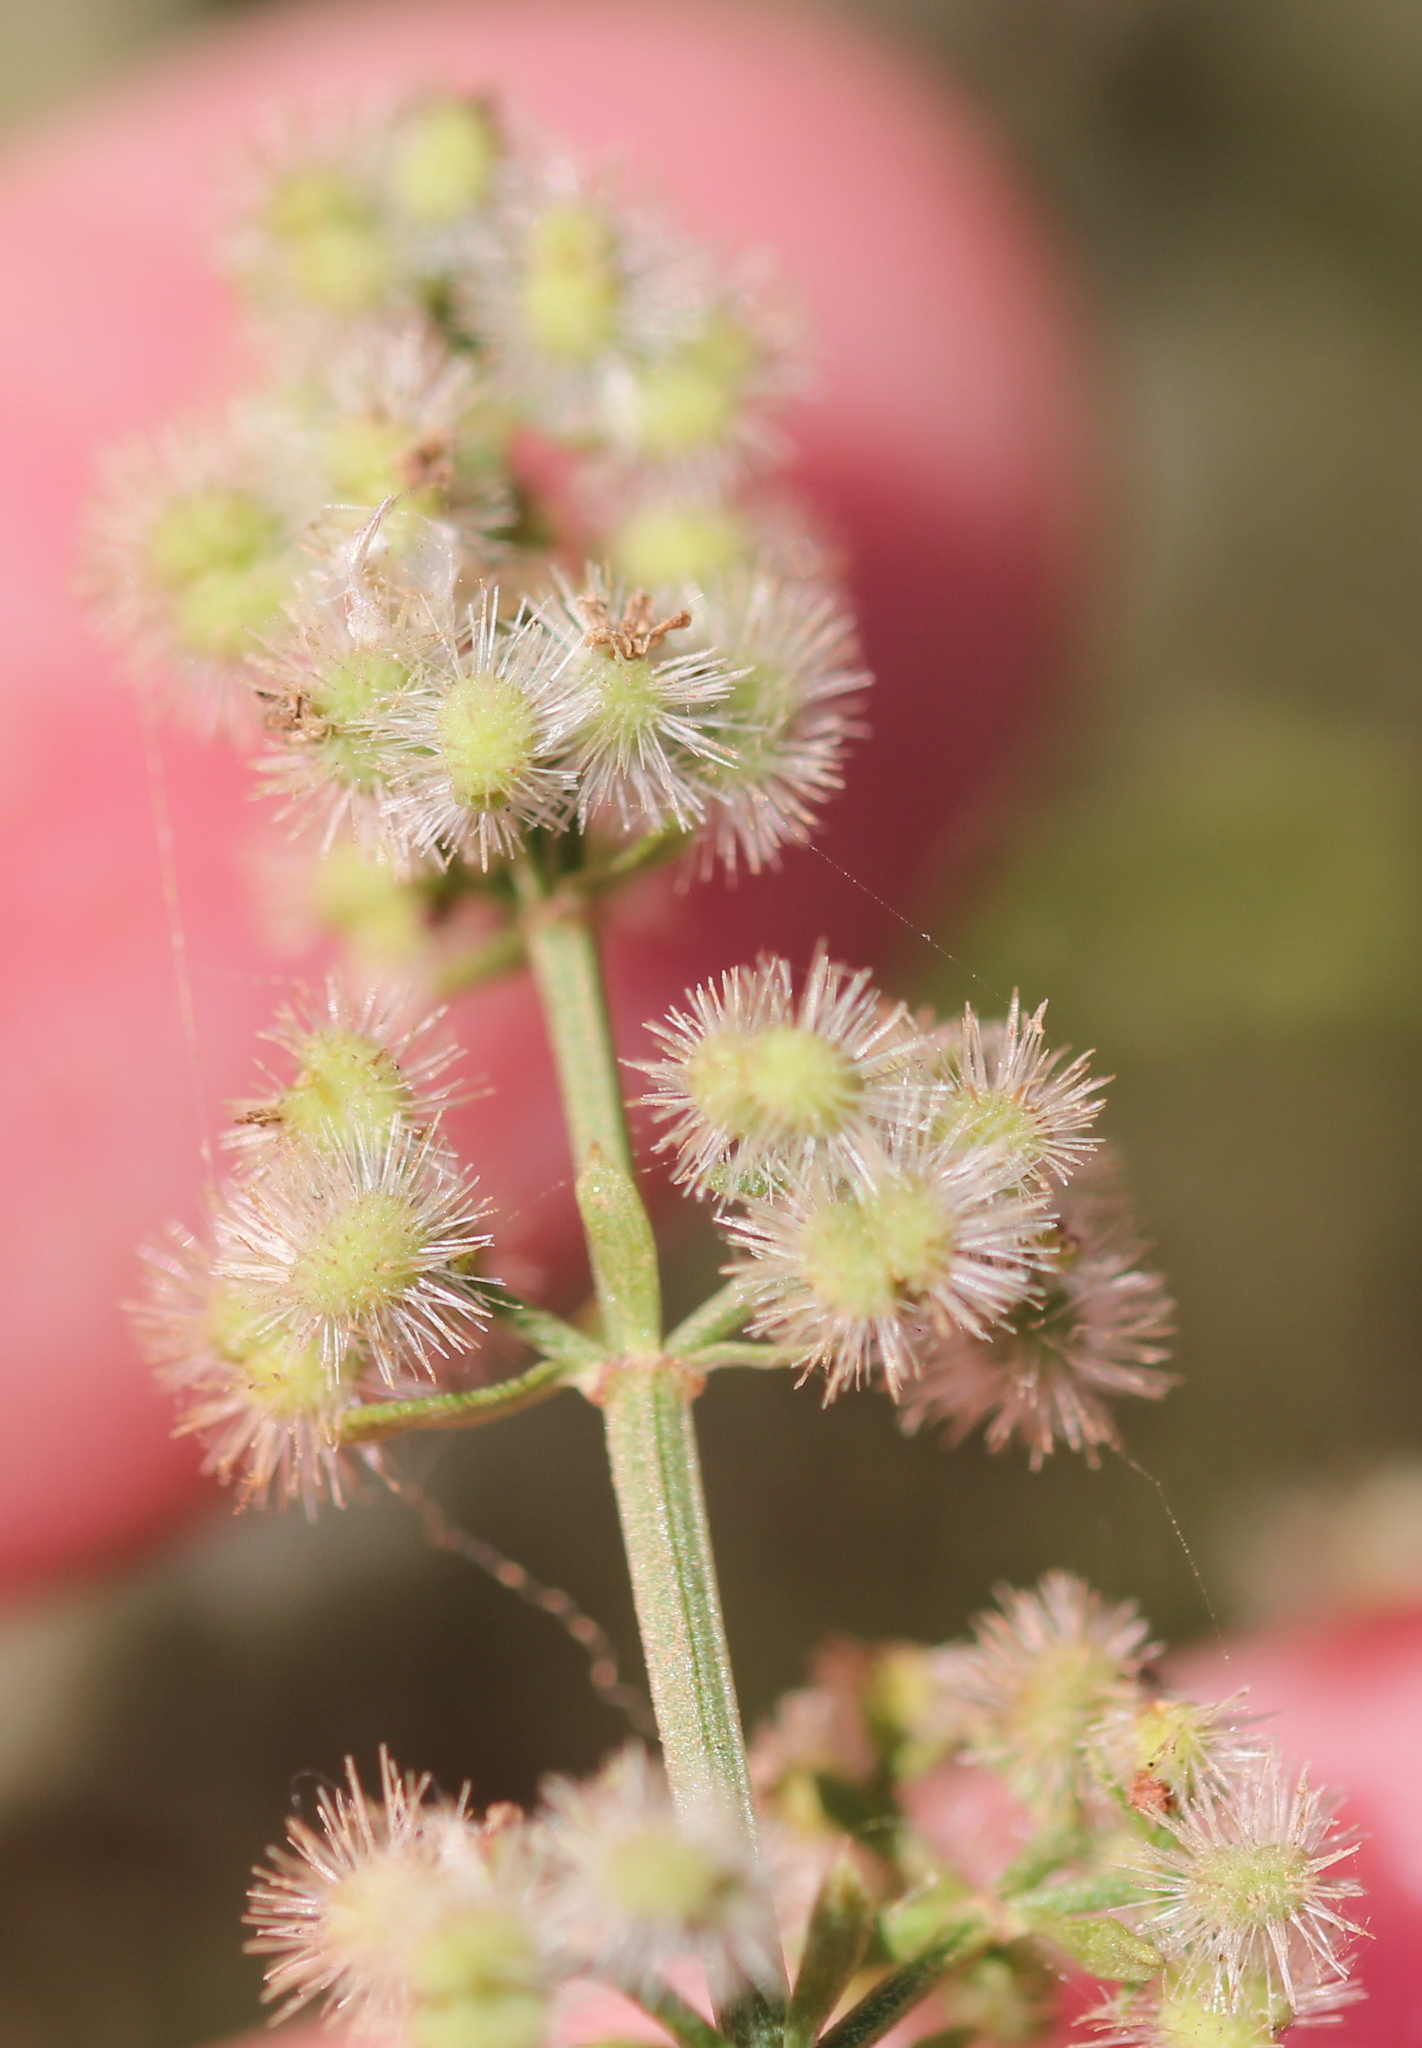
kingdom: Plantae
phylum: Tracheophyta
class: Magnoliopsida
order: Gentianales
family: Rubiaceae
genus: Galium
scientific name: Galium angustifolium
